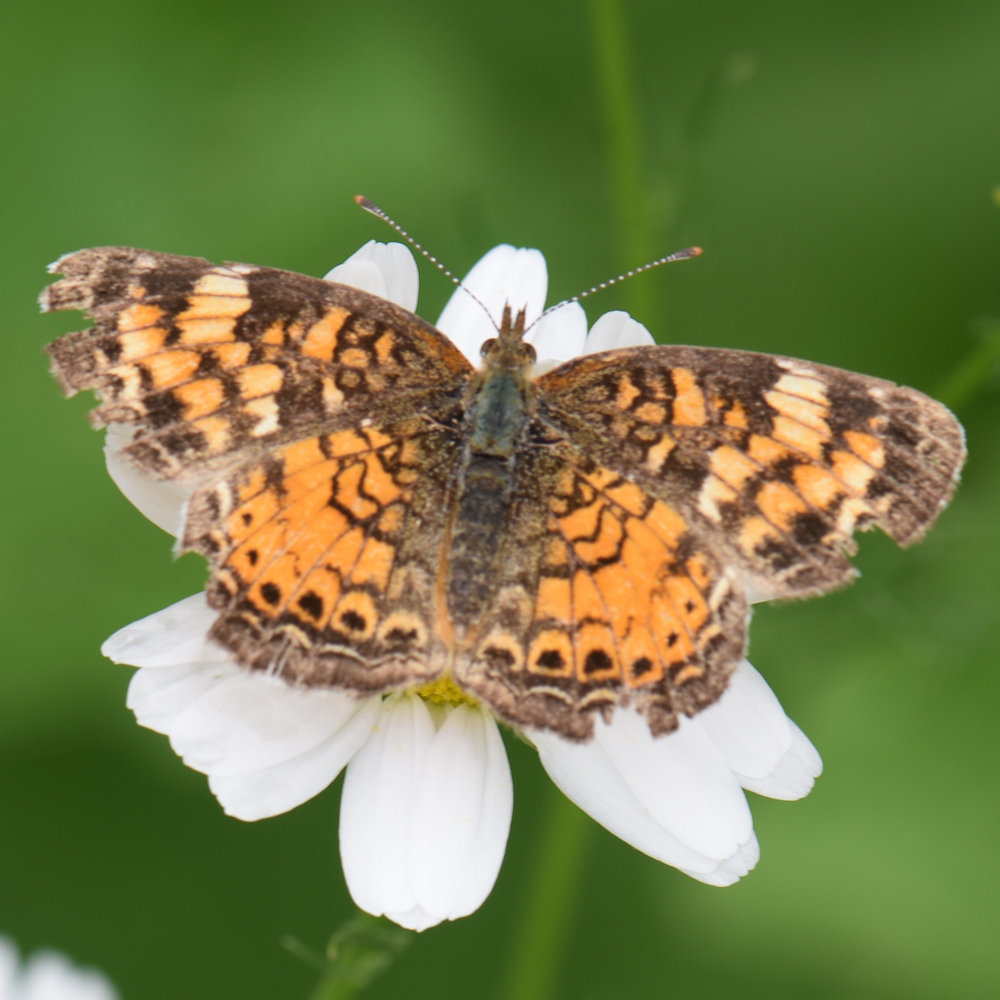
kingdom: Animalia
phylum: Arthropoda
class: Insecta
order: Lepidoptera
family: Nymphalidae
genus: Phyciodes
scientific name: Phyciodes tharos
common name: Pearl crescent
